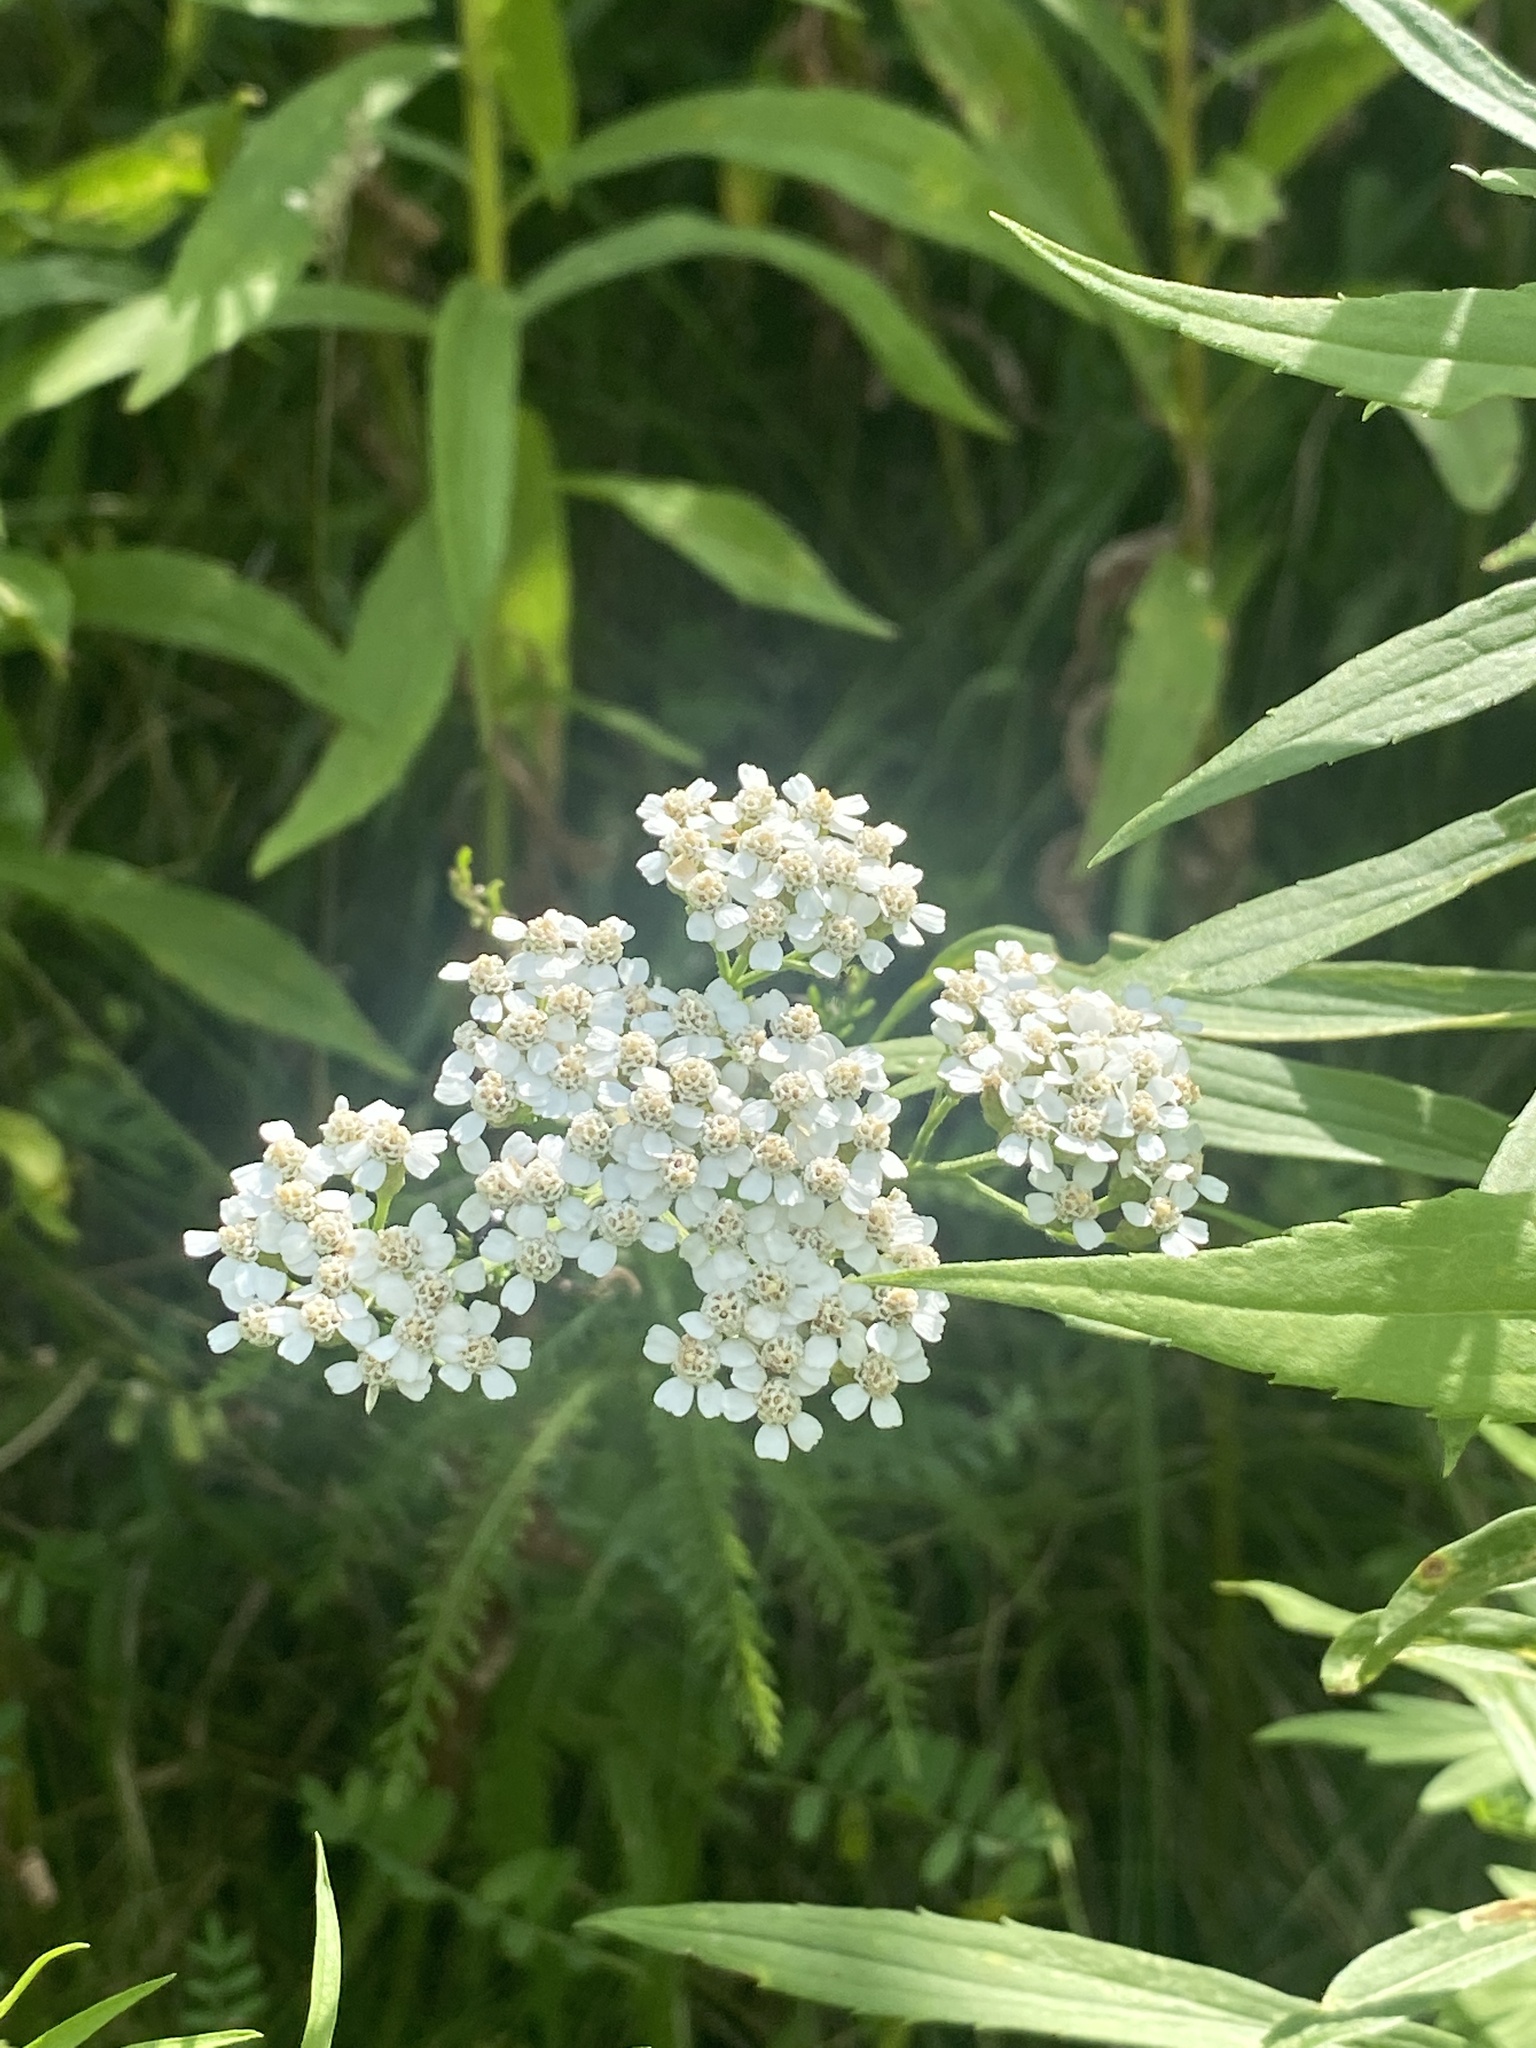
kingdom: Plantae
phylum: Tracheophyta
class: Magnoliopsida
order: Asterales
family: Asteraceae
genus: Achillea
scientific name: Achillea millefolium
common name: Yarrow
